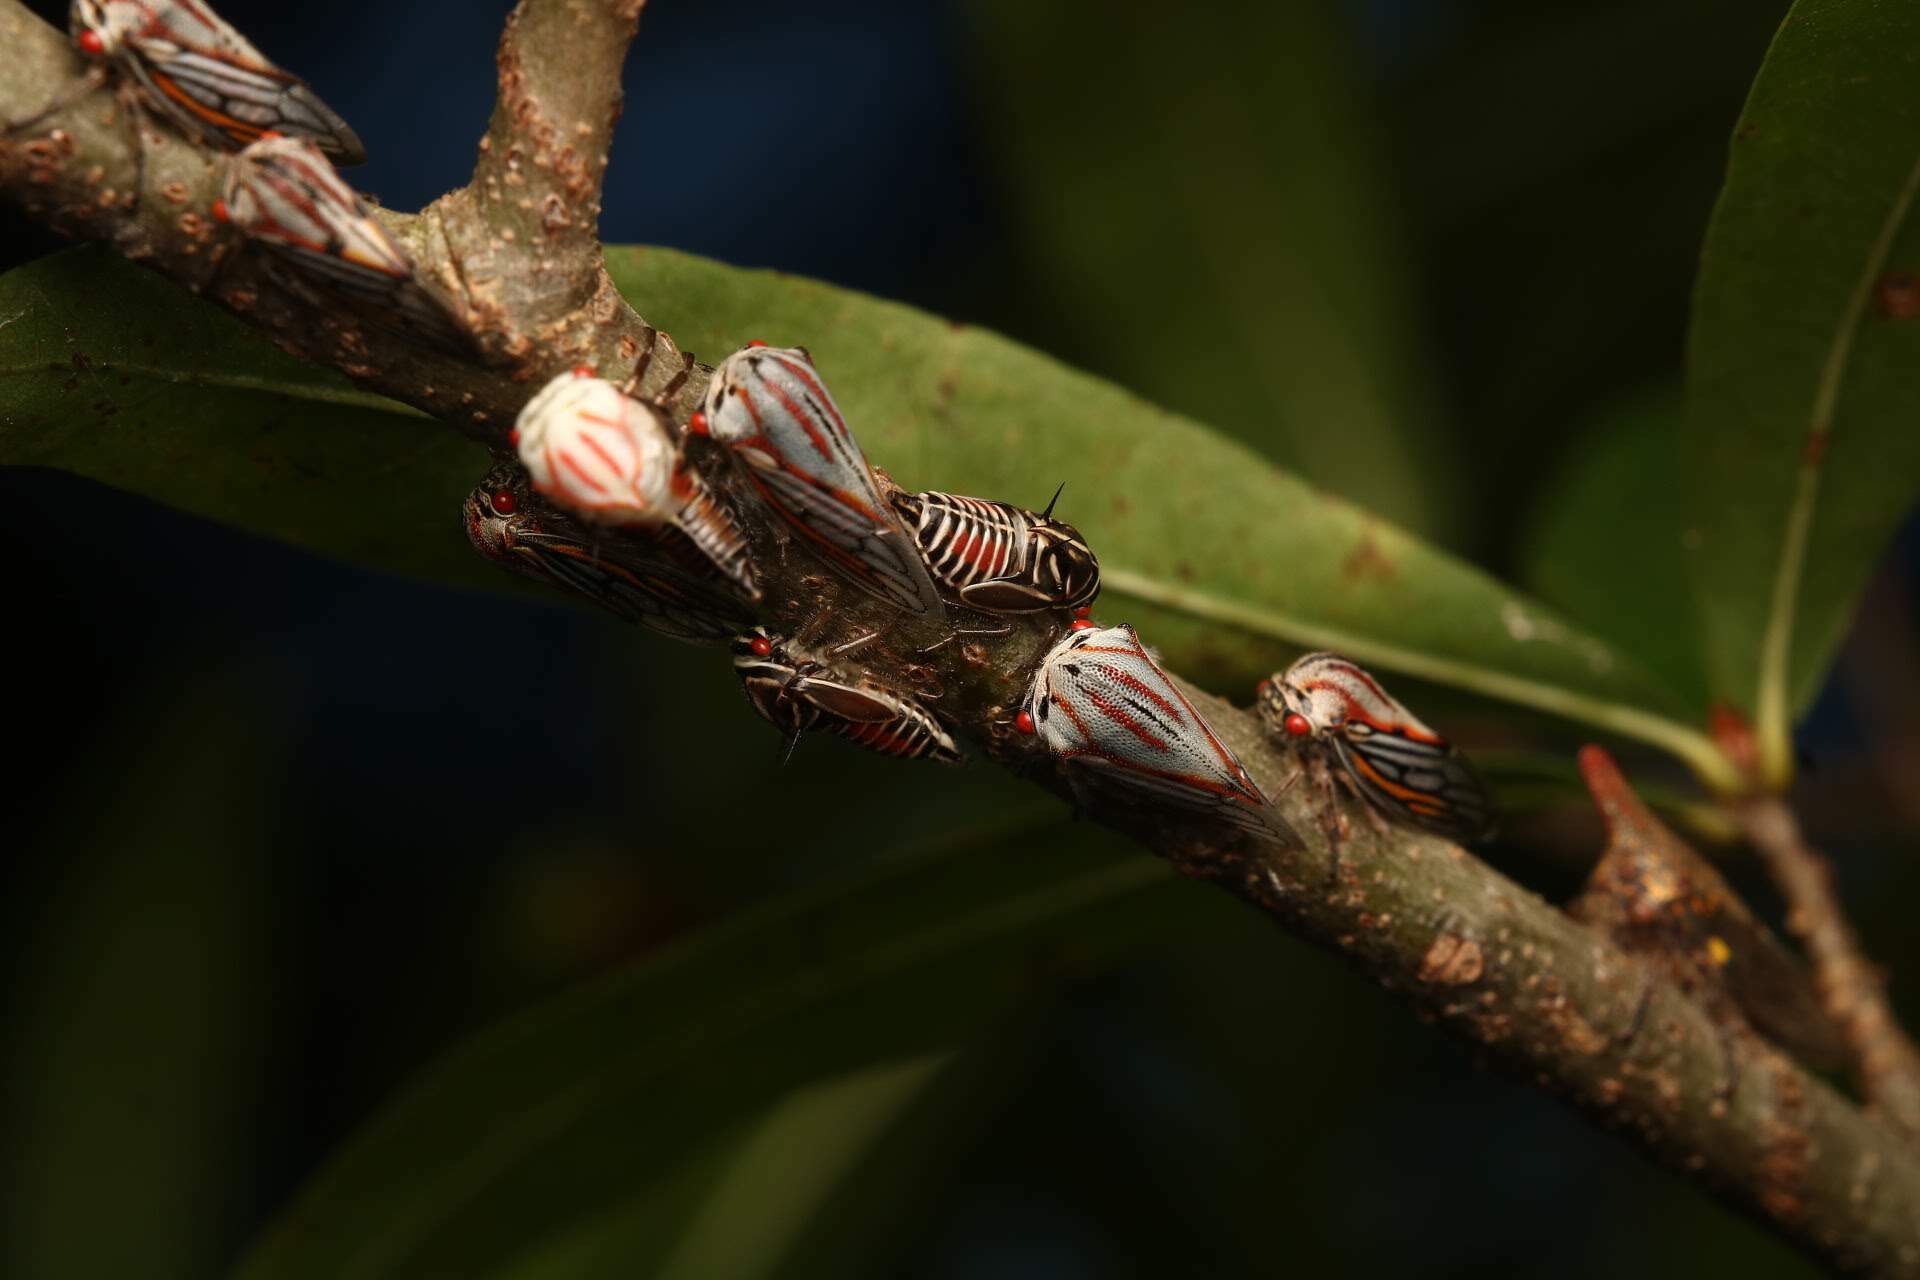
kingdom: Animalia
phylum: Arthropoda
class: Insecta
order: Hemiptera
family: Membracidae
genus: Platycotis
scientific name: Platycotis vittatus
